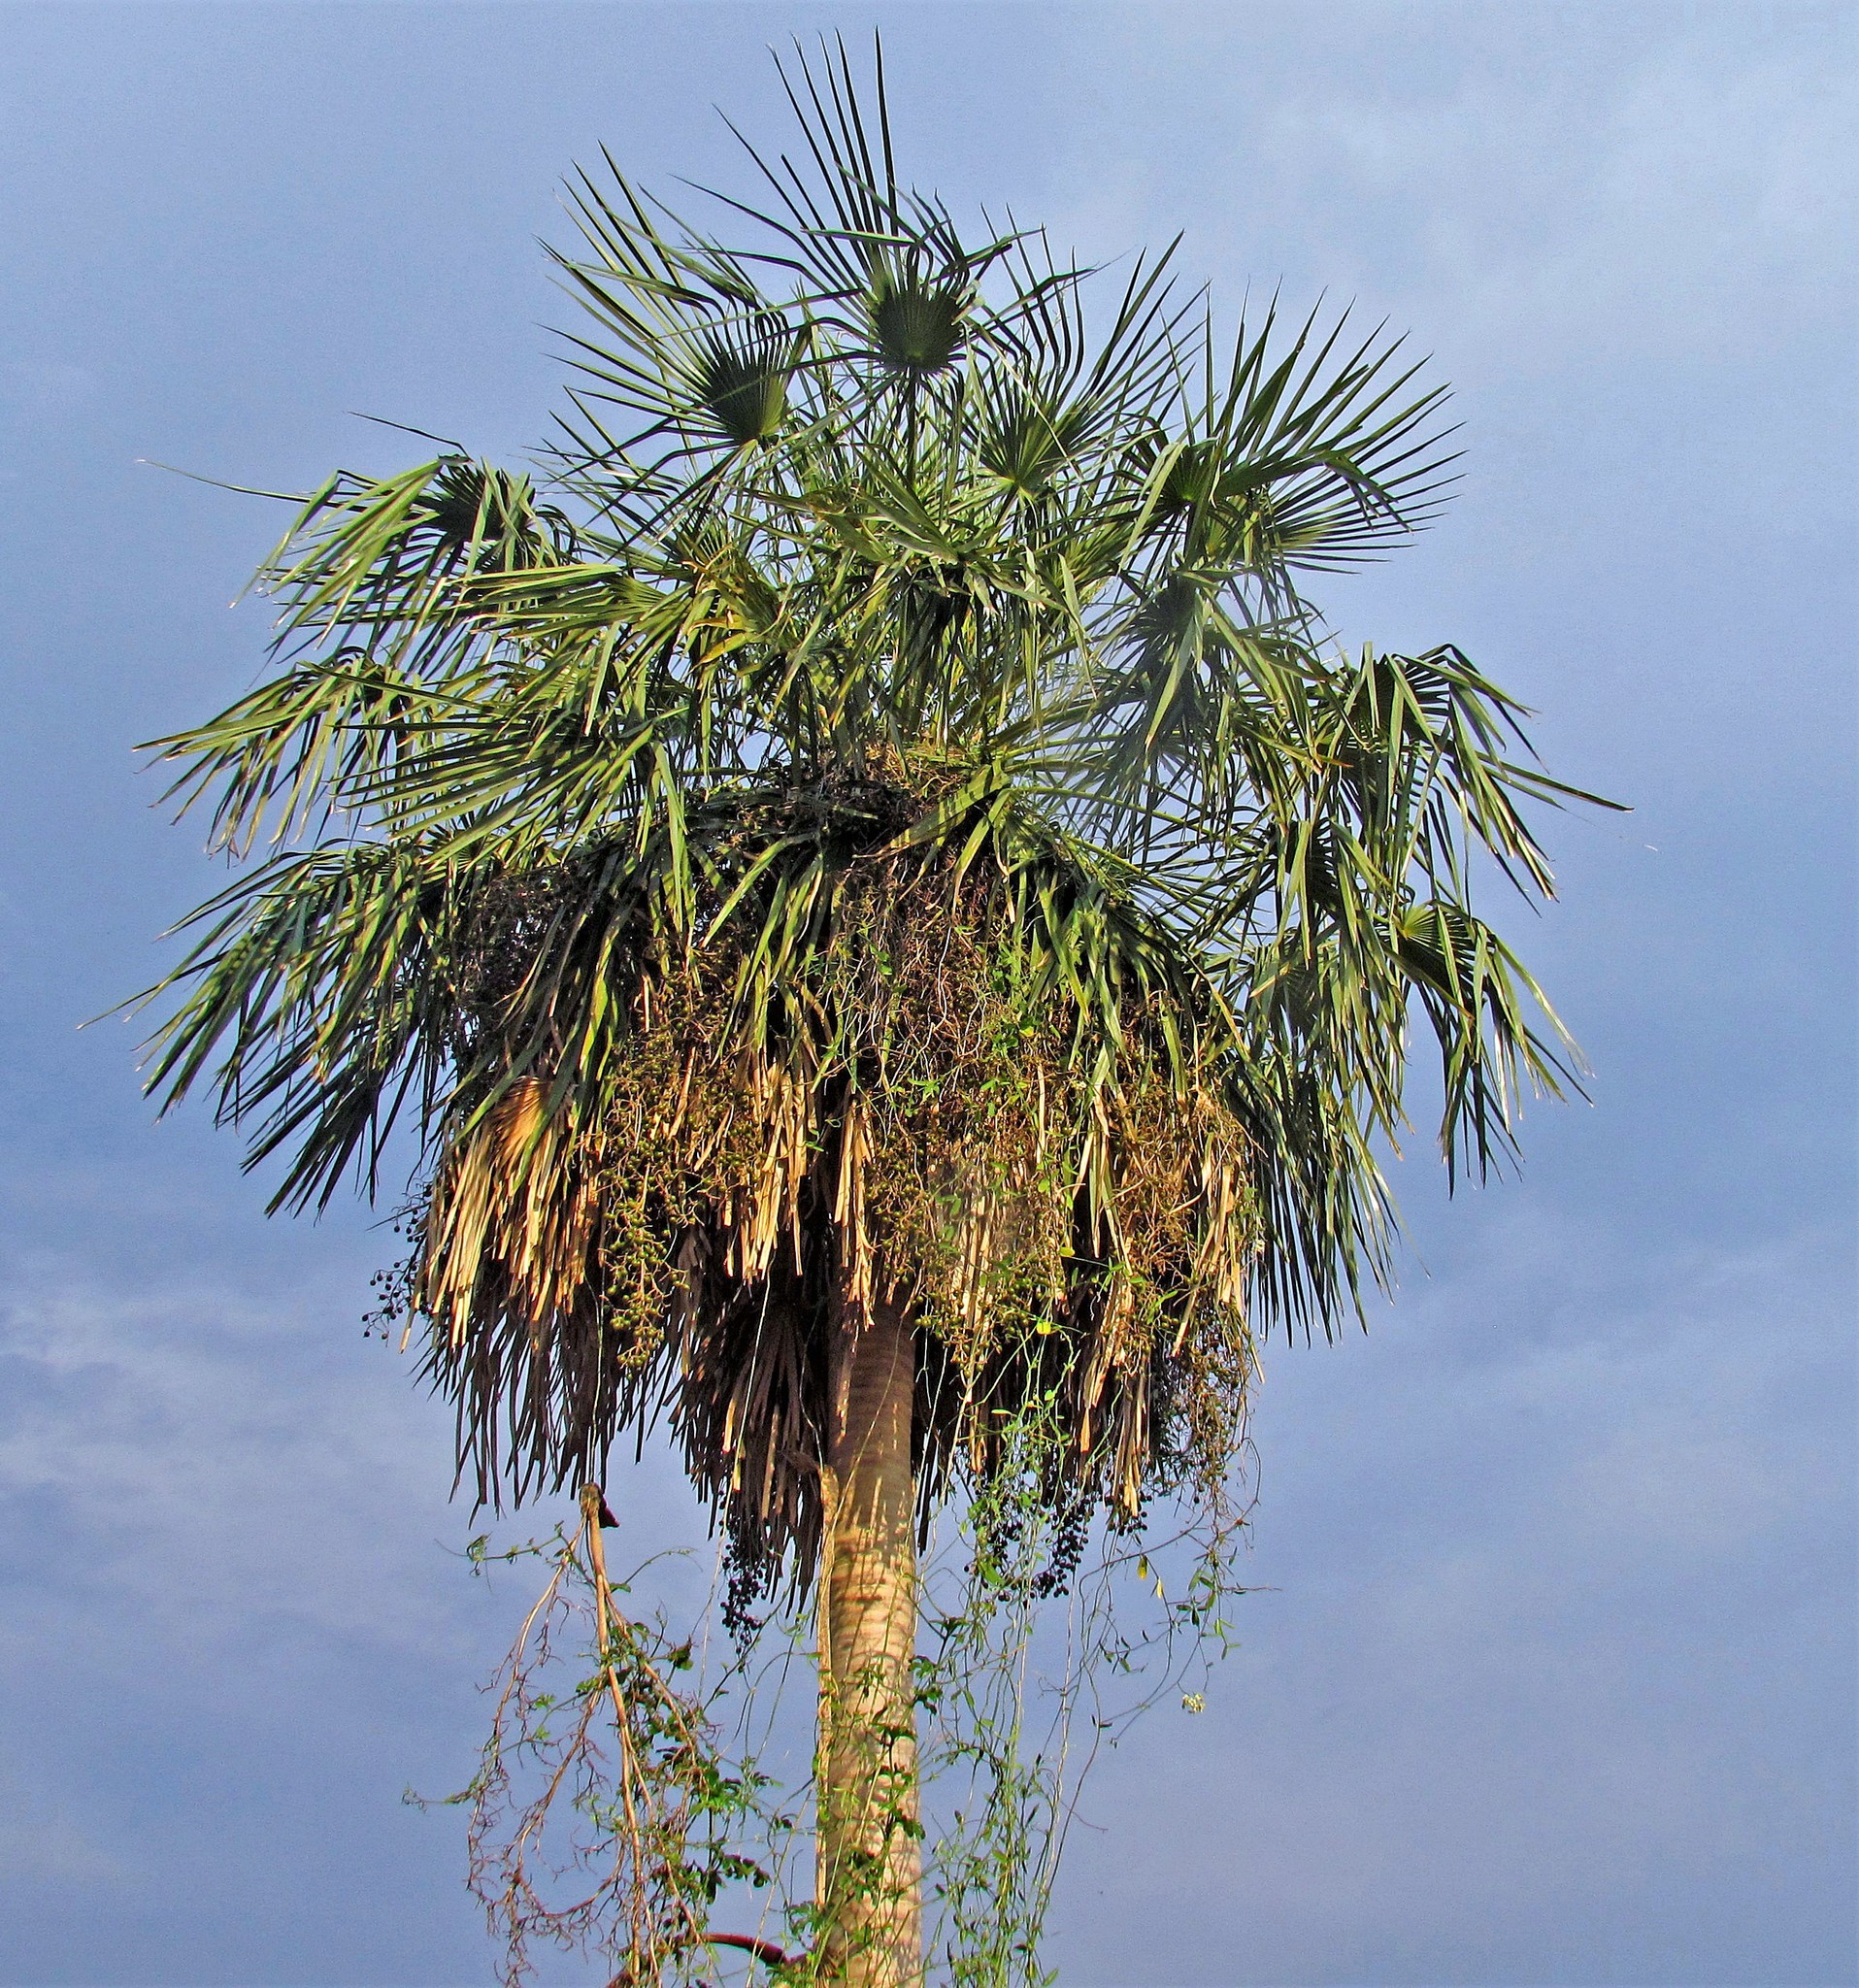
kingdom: Plantae
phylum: Tracheophyta
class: Liliopsida
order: Arecales
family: Arecaceae
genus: Copernicia
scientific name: Copernicia alba
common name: Caranday palm
